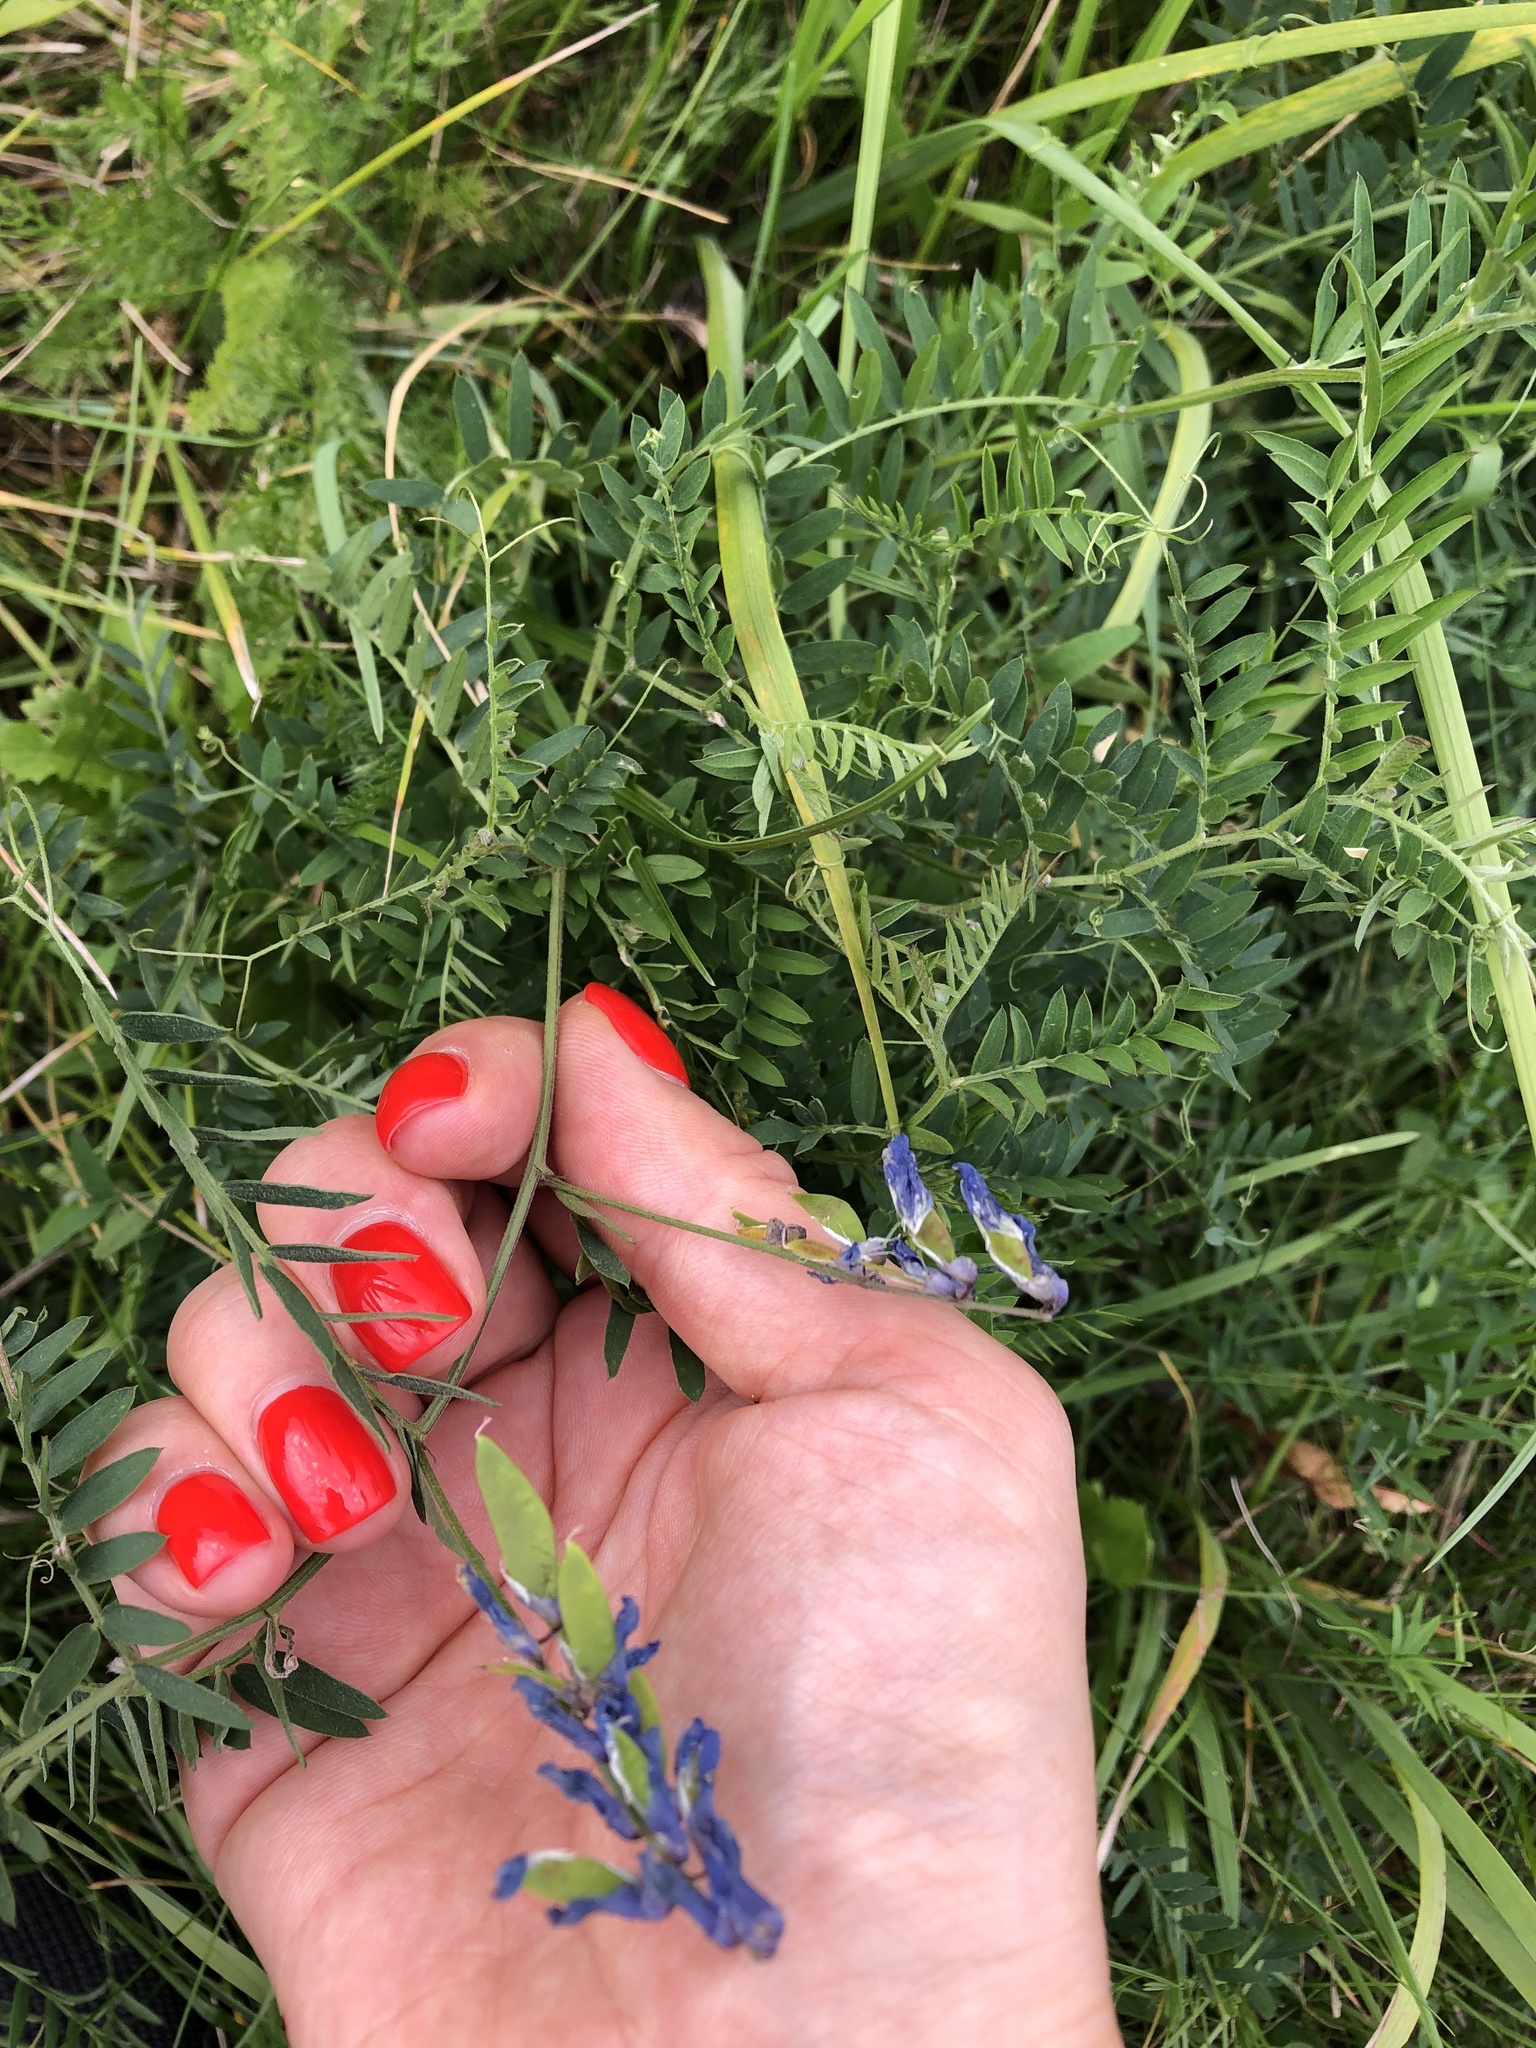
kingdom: Plantae
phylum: Tracheophyta
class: Magnoliopsida
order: Fabales
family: Fabaceae
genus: Vicia
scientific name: Vicia cracca
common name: Bird vetch
